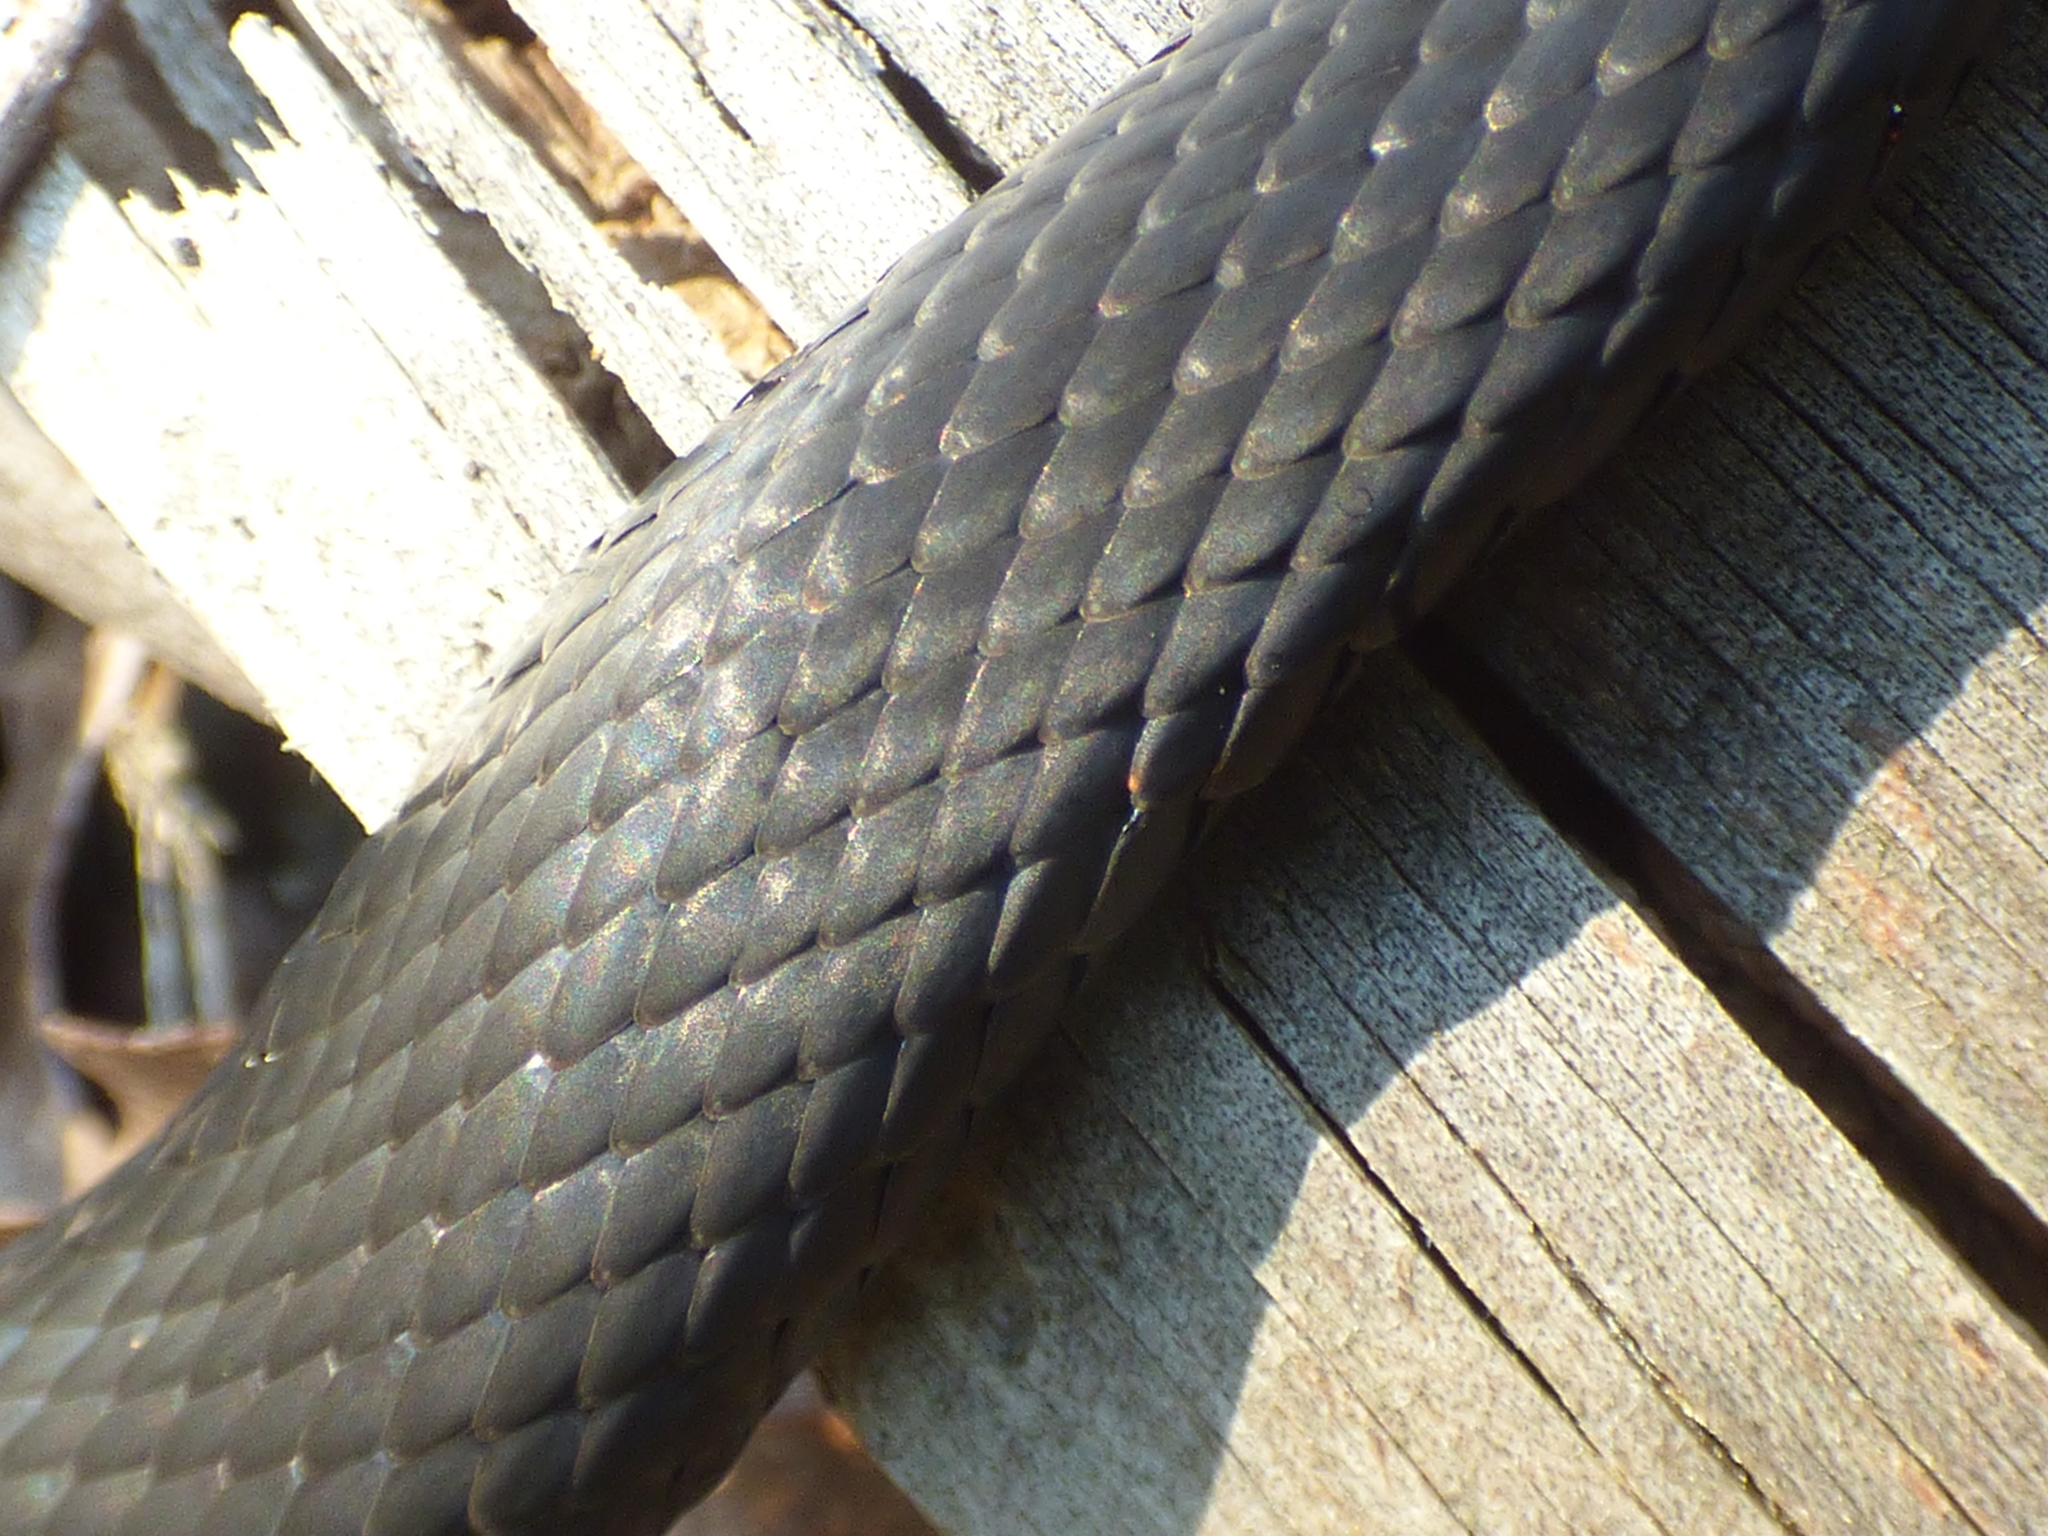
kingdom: Animalia
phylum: Chordata
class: Squamata
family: Colubridae
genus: Coluber
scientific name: Coluber constrictor
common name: Eastern racer
